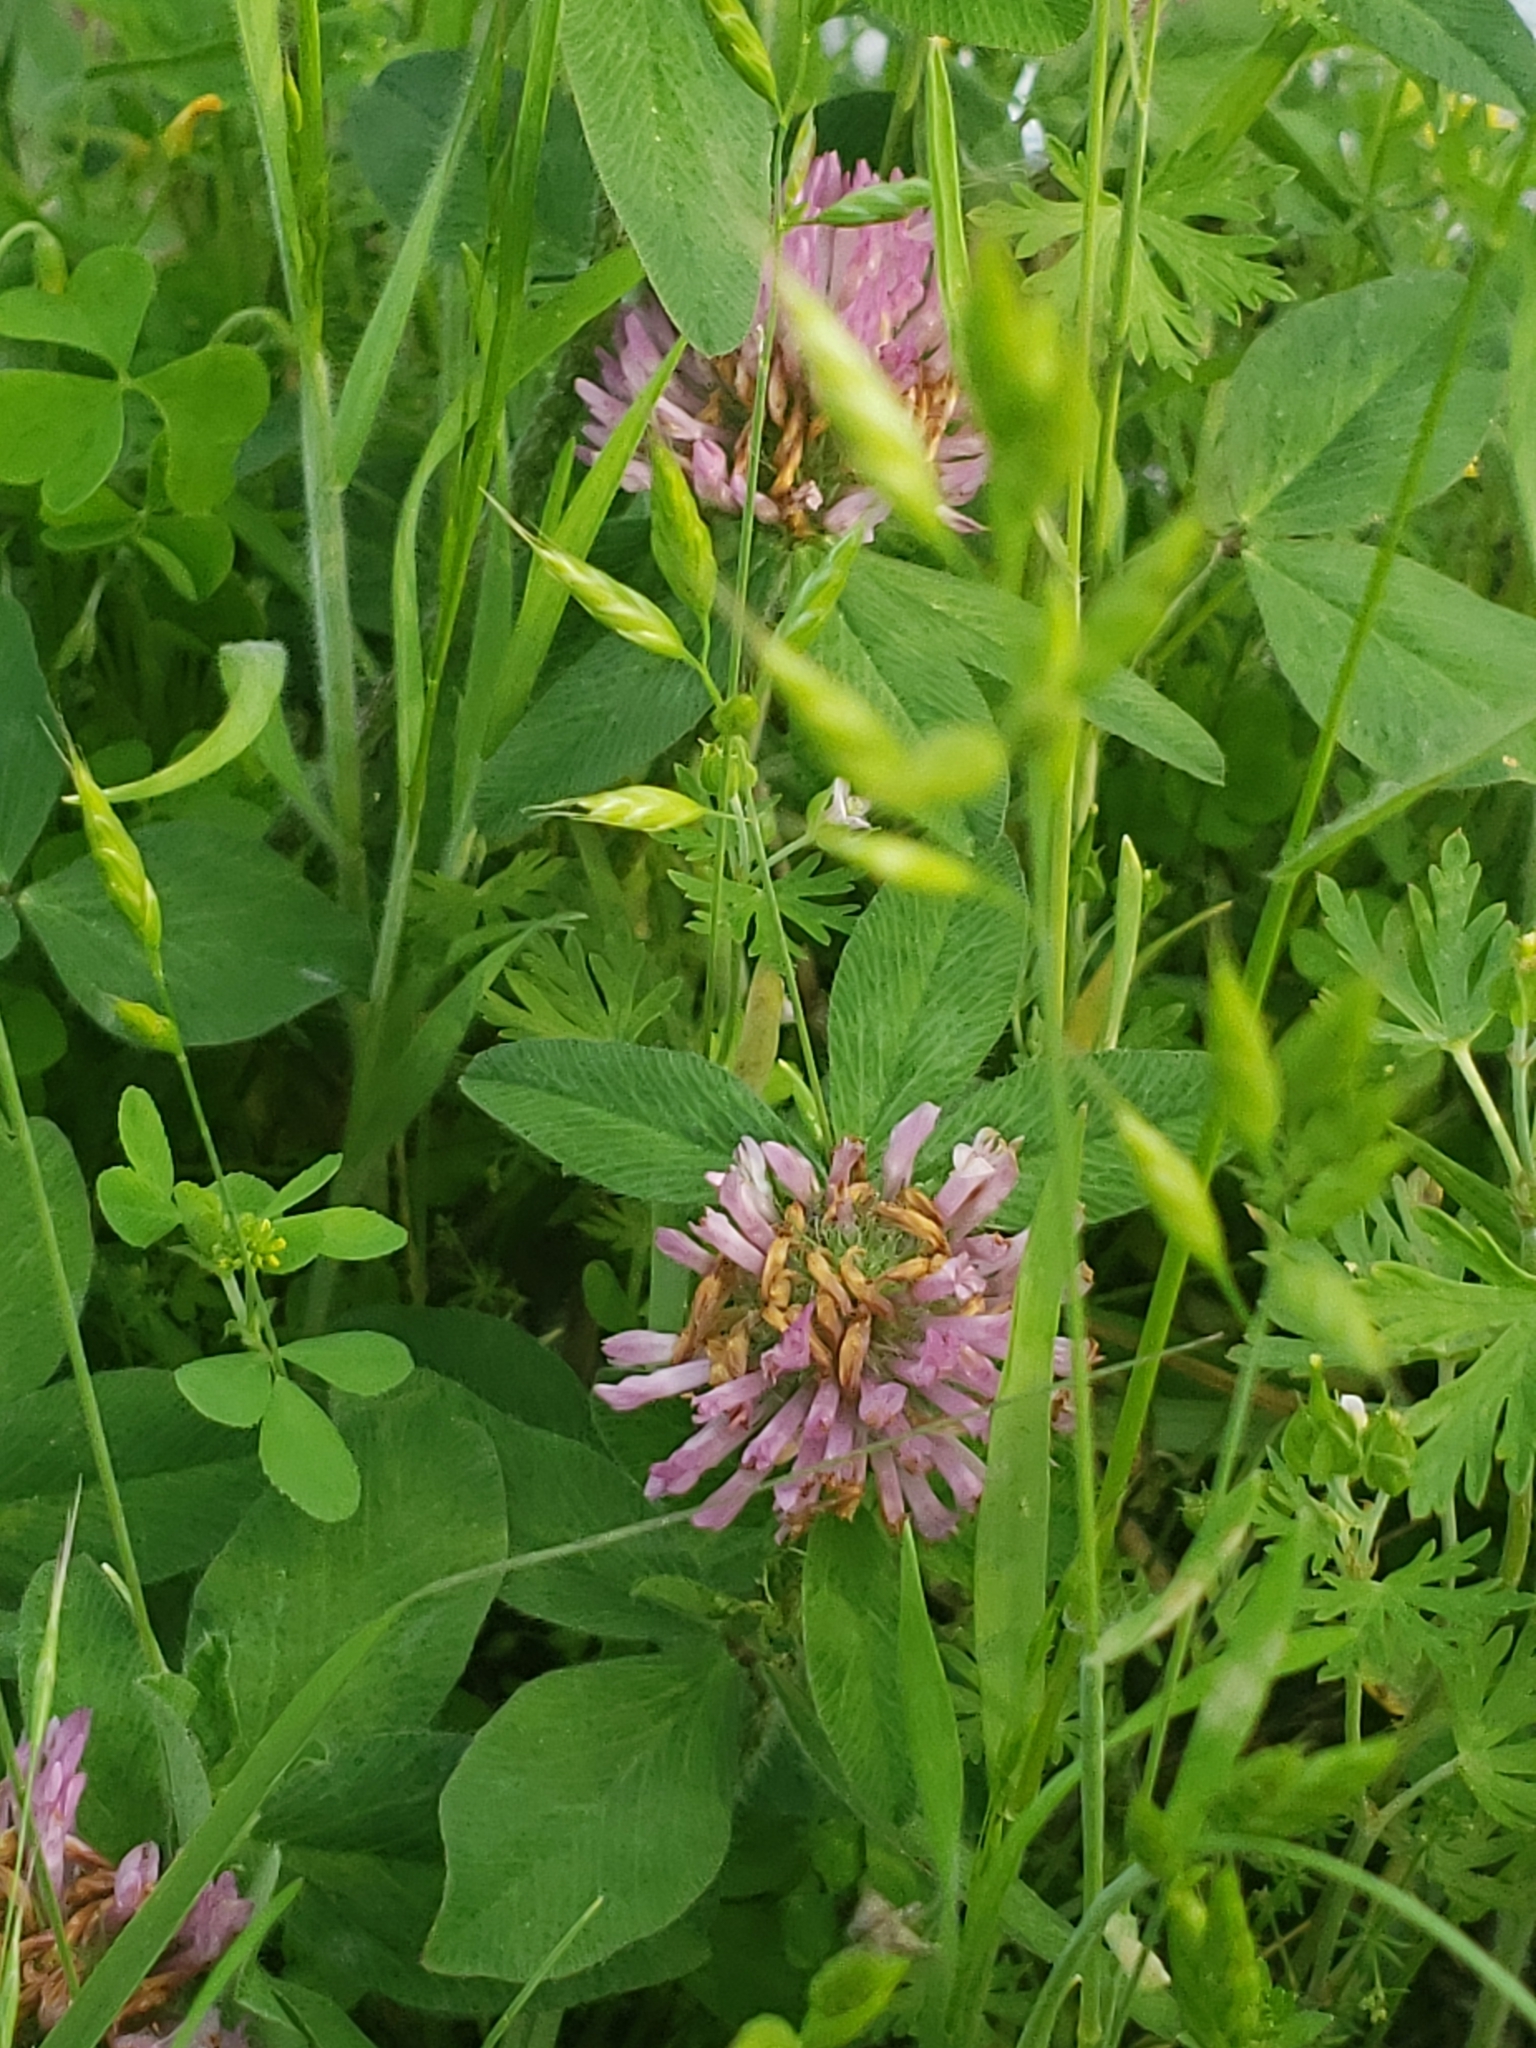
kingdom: Plantae
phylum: Tracheophyta
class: Magnoliopsida
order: Fabales
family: Fabaceae
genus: Trifolium
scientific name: Trifolium pratense
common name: Red clover
